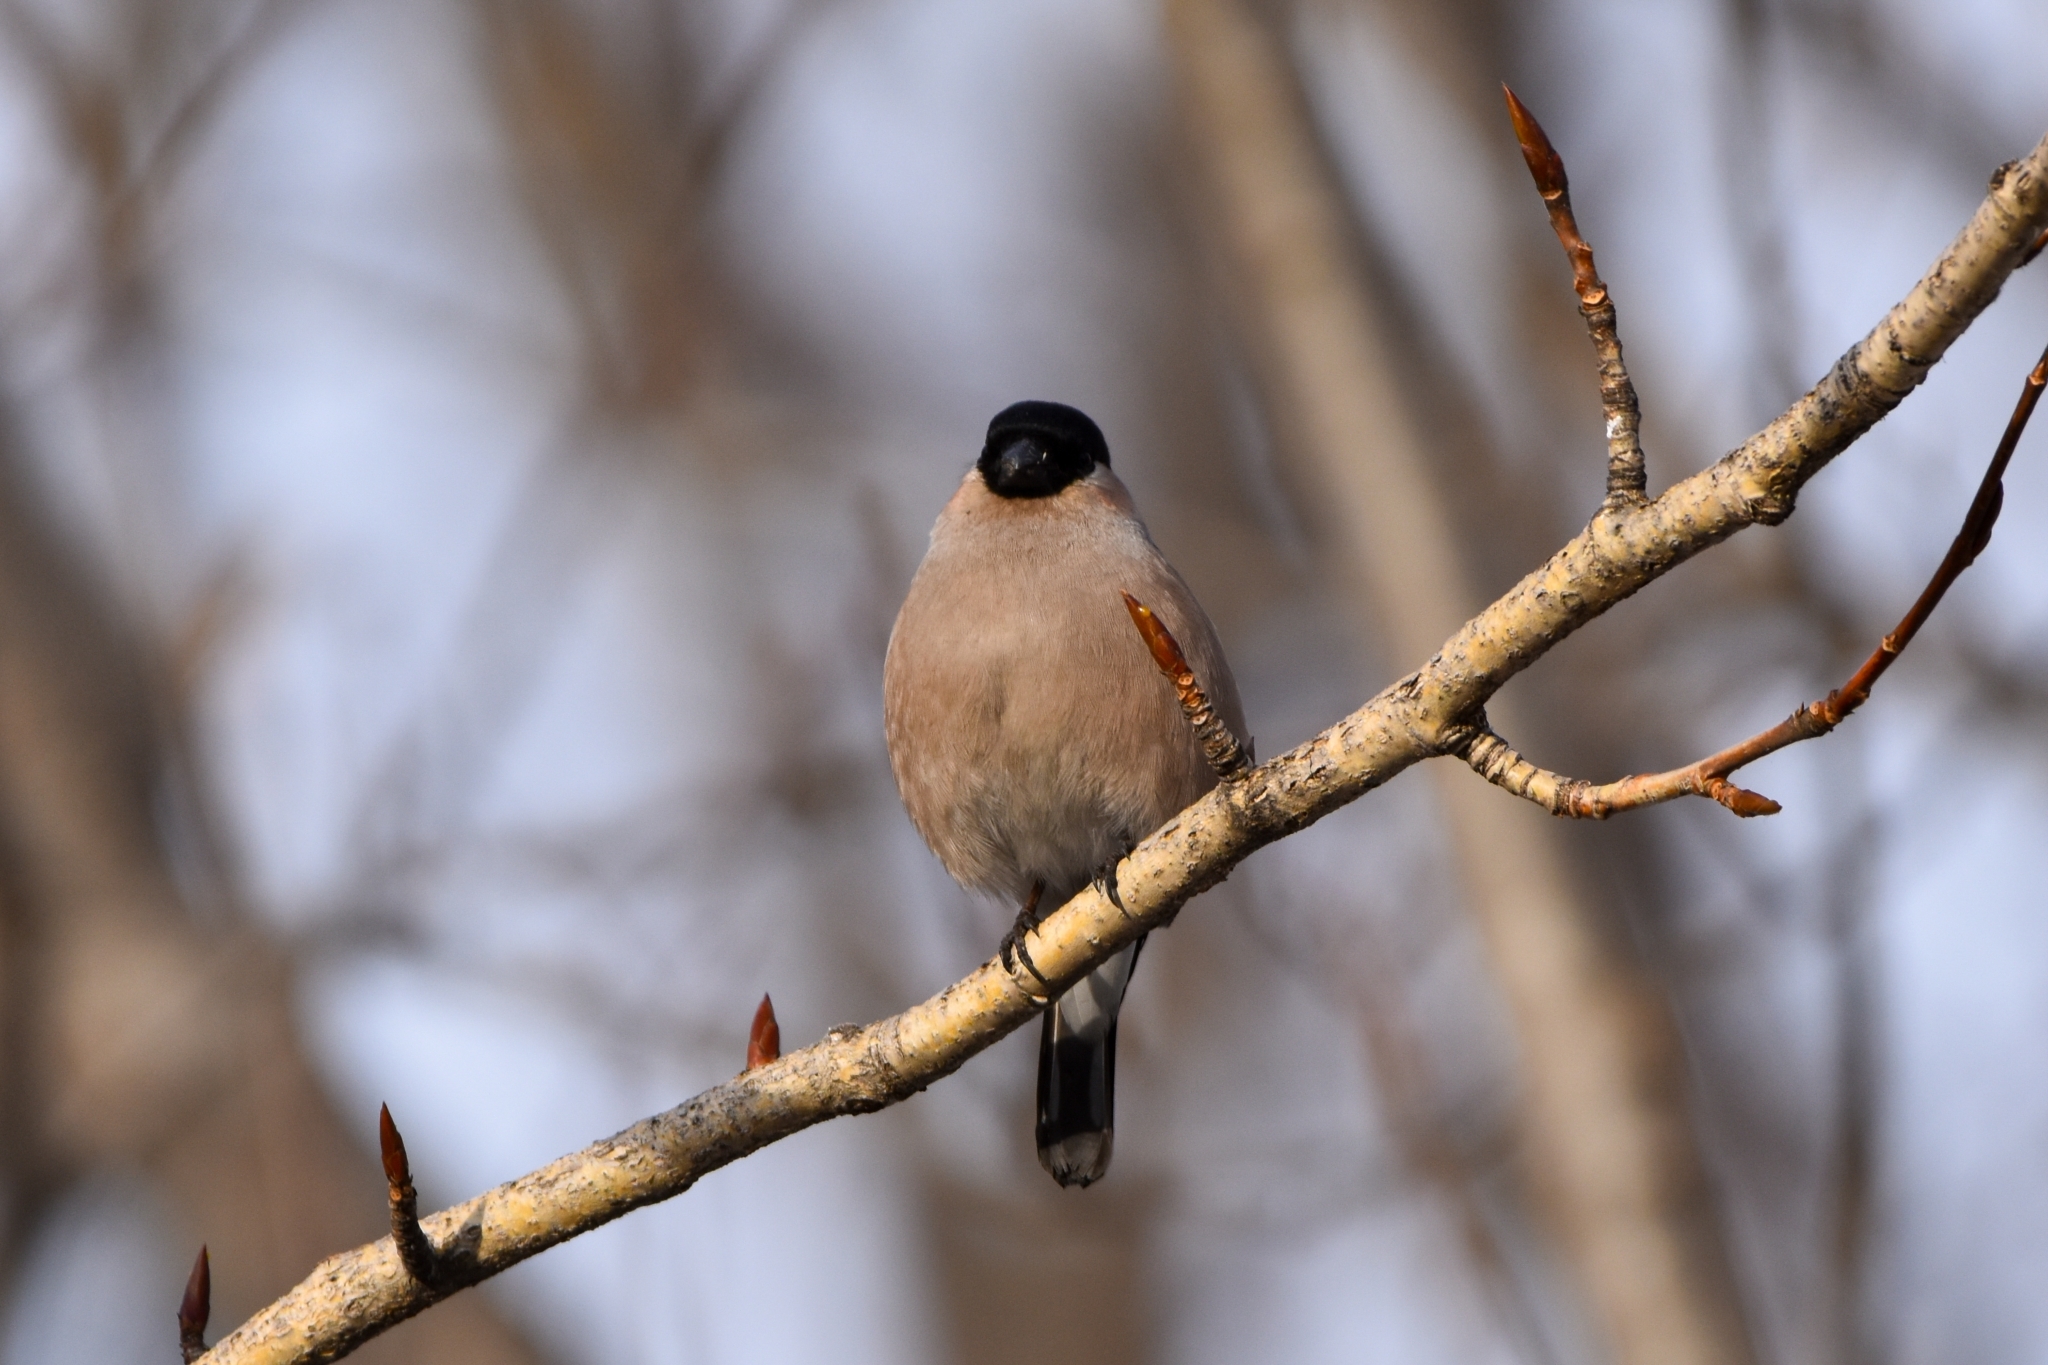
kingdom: Animalia
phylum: Chordata
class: Aves
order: Passeriformes
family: Fringillidae
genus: Pyrrhula
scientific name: Pyrrhula pyrrhula
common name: Eurasian bullfinch
